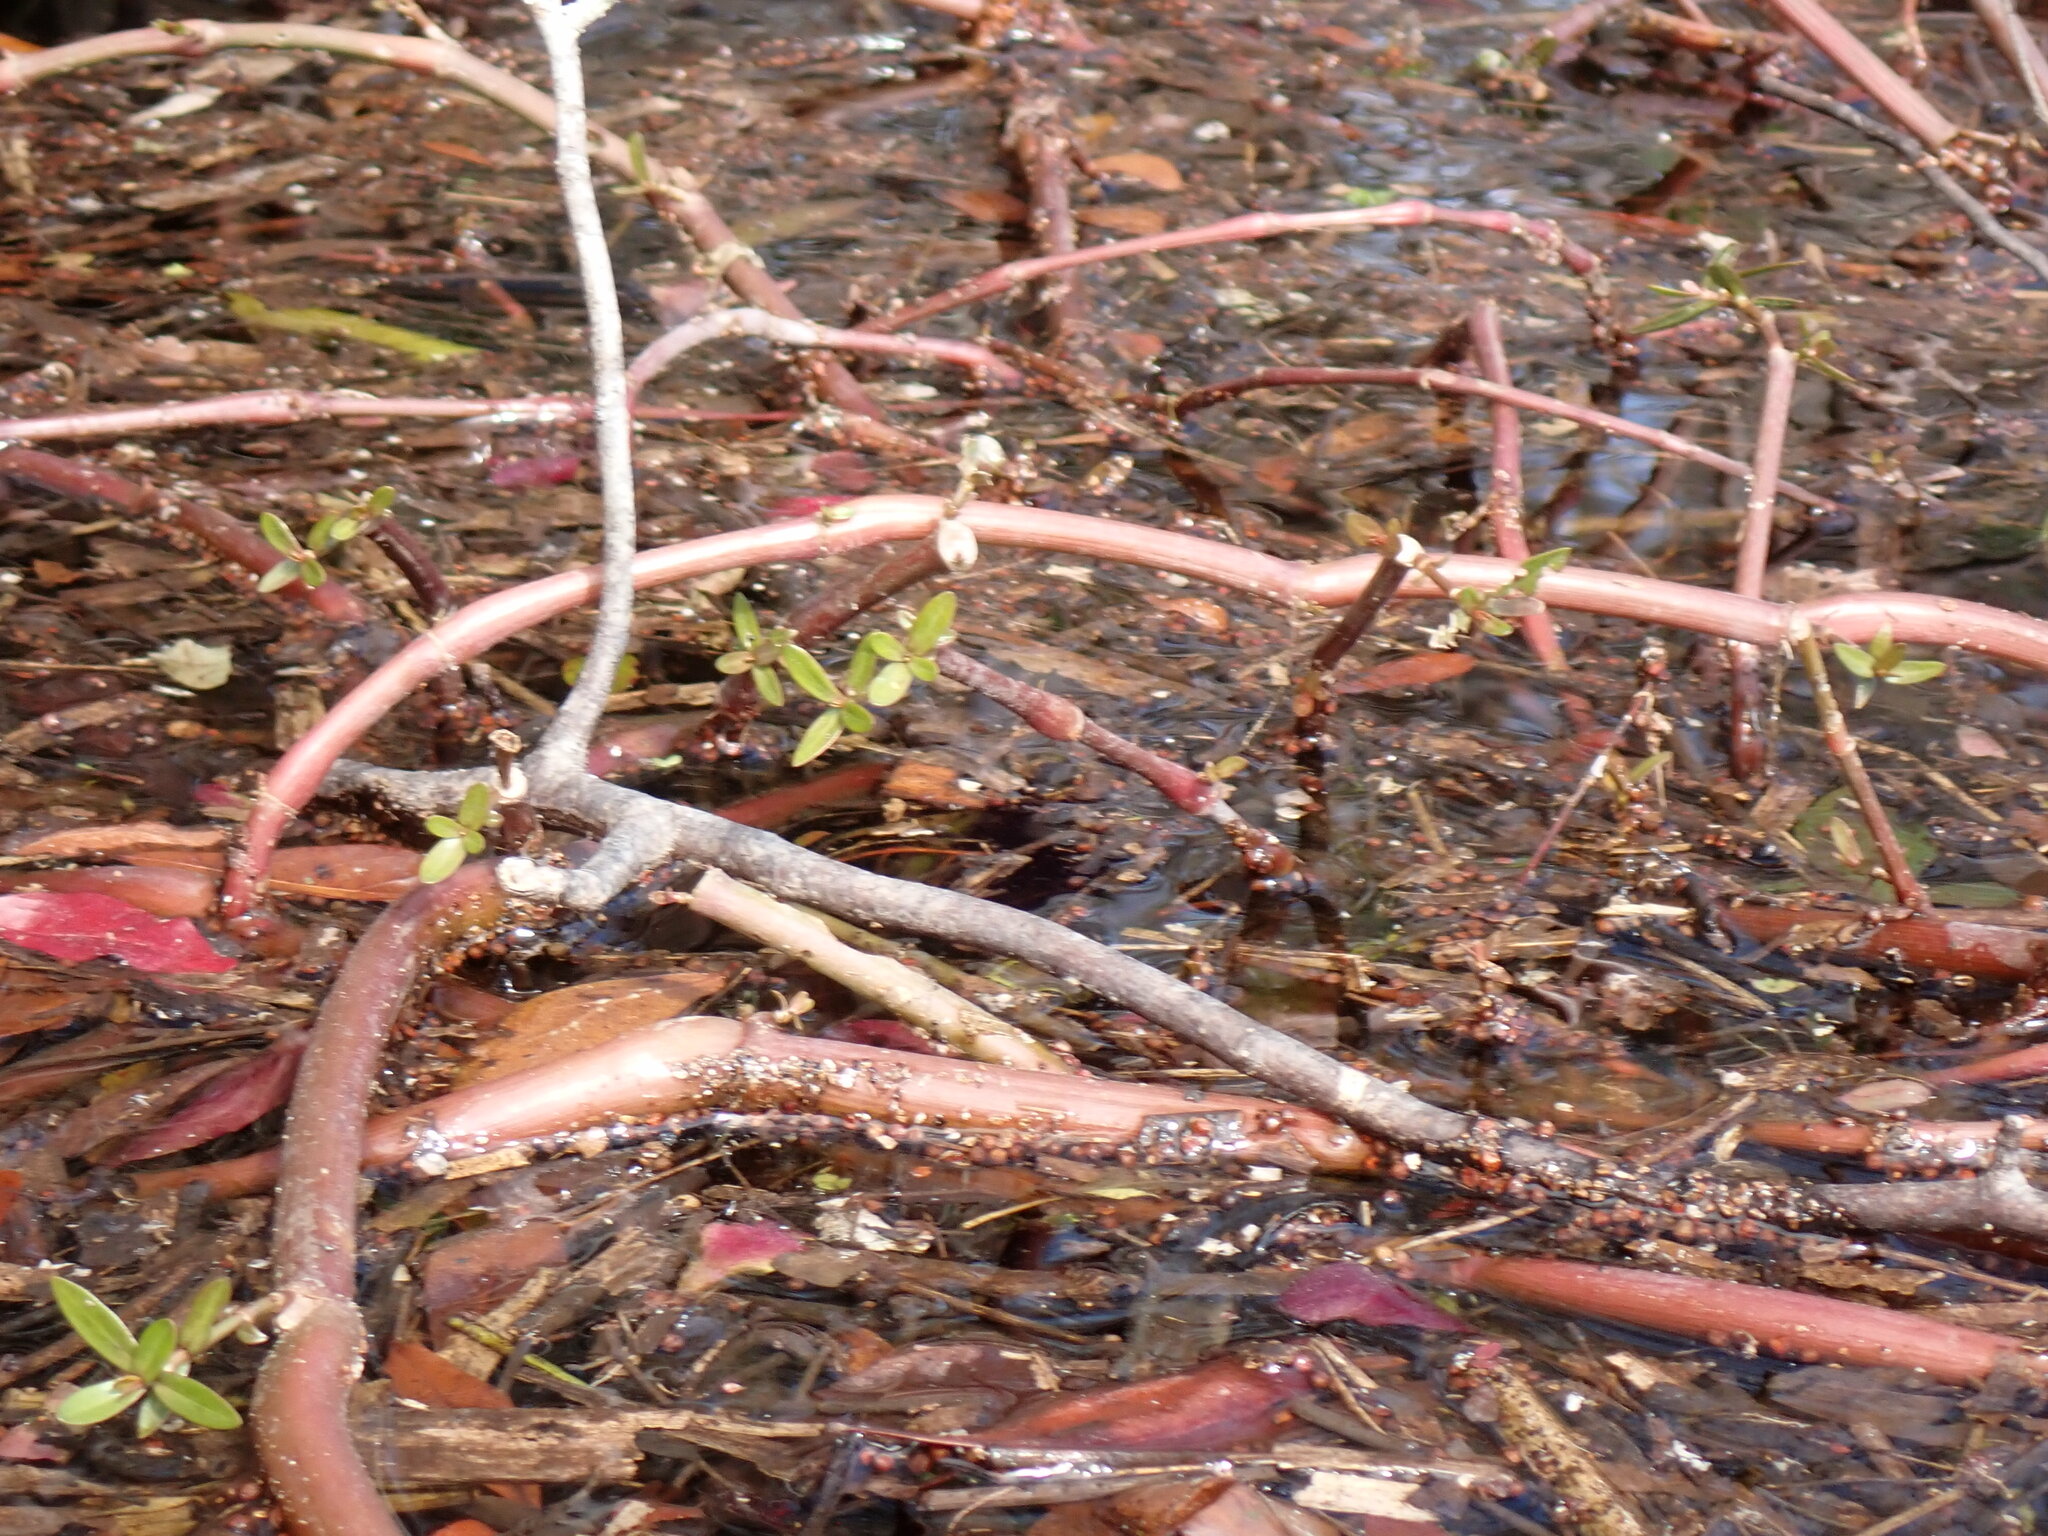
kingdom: Plantae
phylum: Tracheophyta
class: Magnoliopsida
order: Caryophyllales
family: Amaranthaceae
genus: Alternanthera
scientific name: Alternanthera philoxeroides
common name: Alligatorweed
